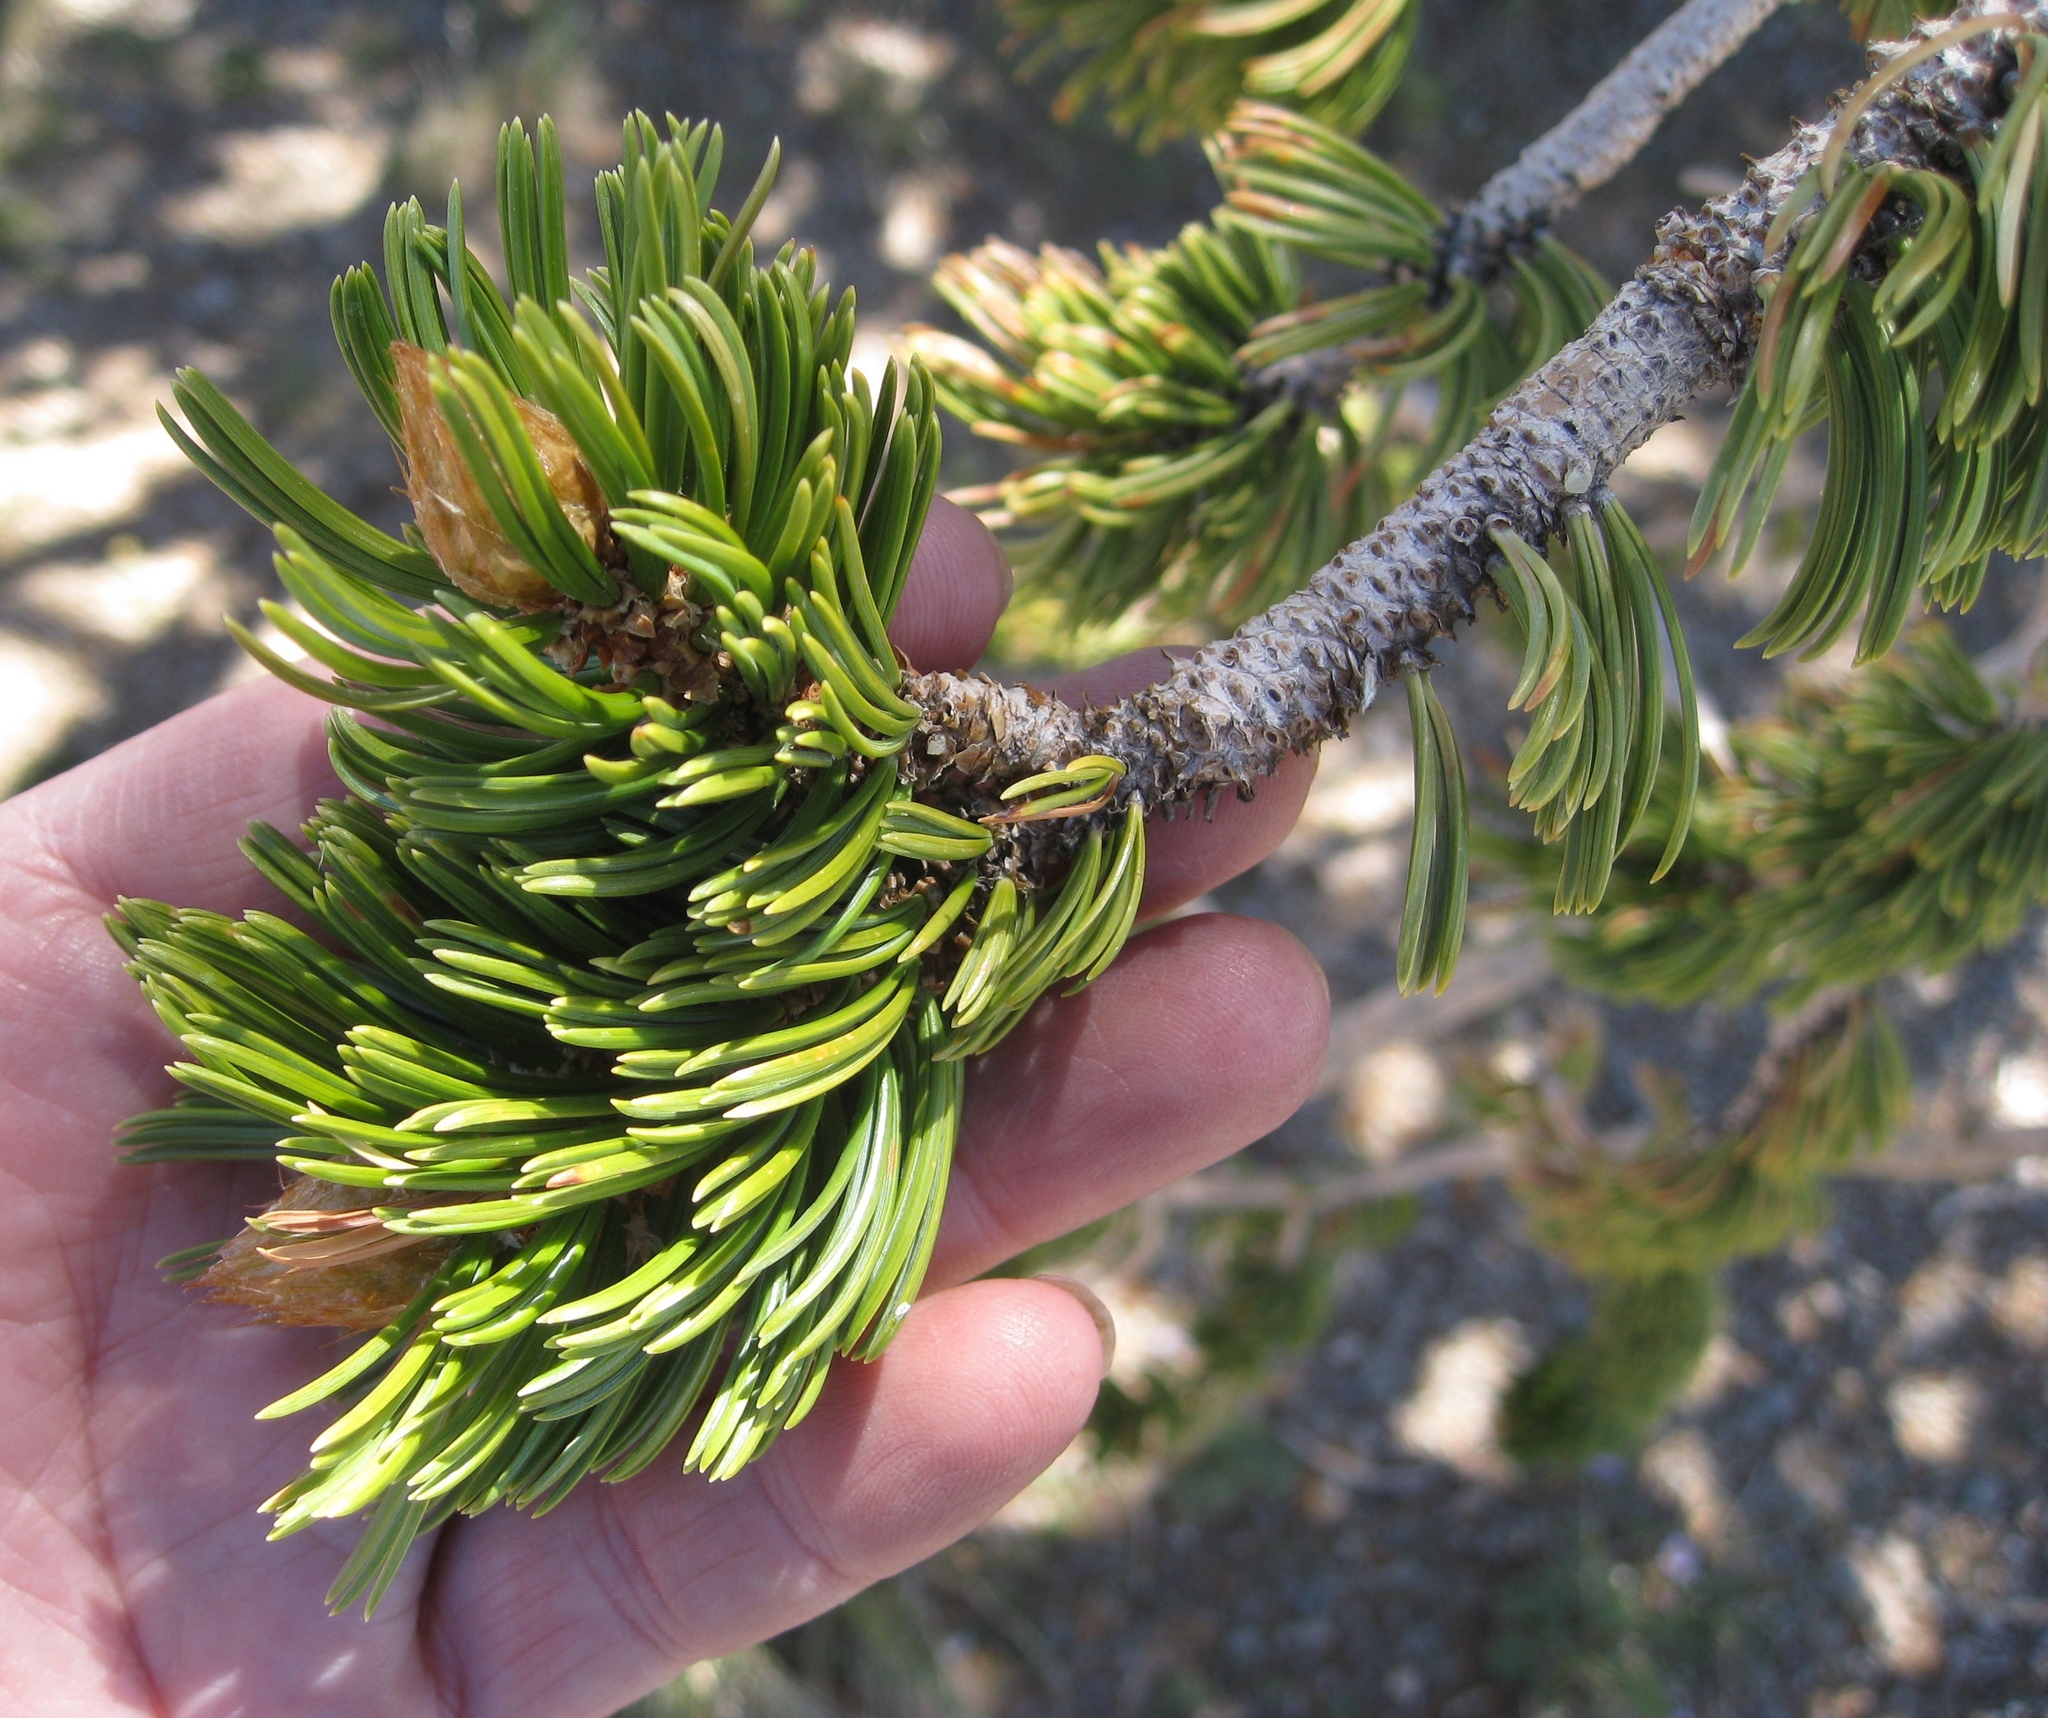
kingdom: Plantae
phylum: Tracheophyta
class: Pinopsida
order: Pinales
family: Pinaceae
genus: Pinus
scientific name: Pinus longaeva
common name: Intermountain bristlecone pine
